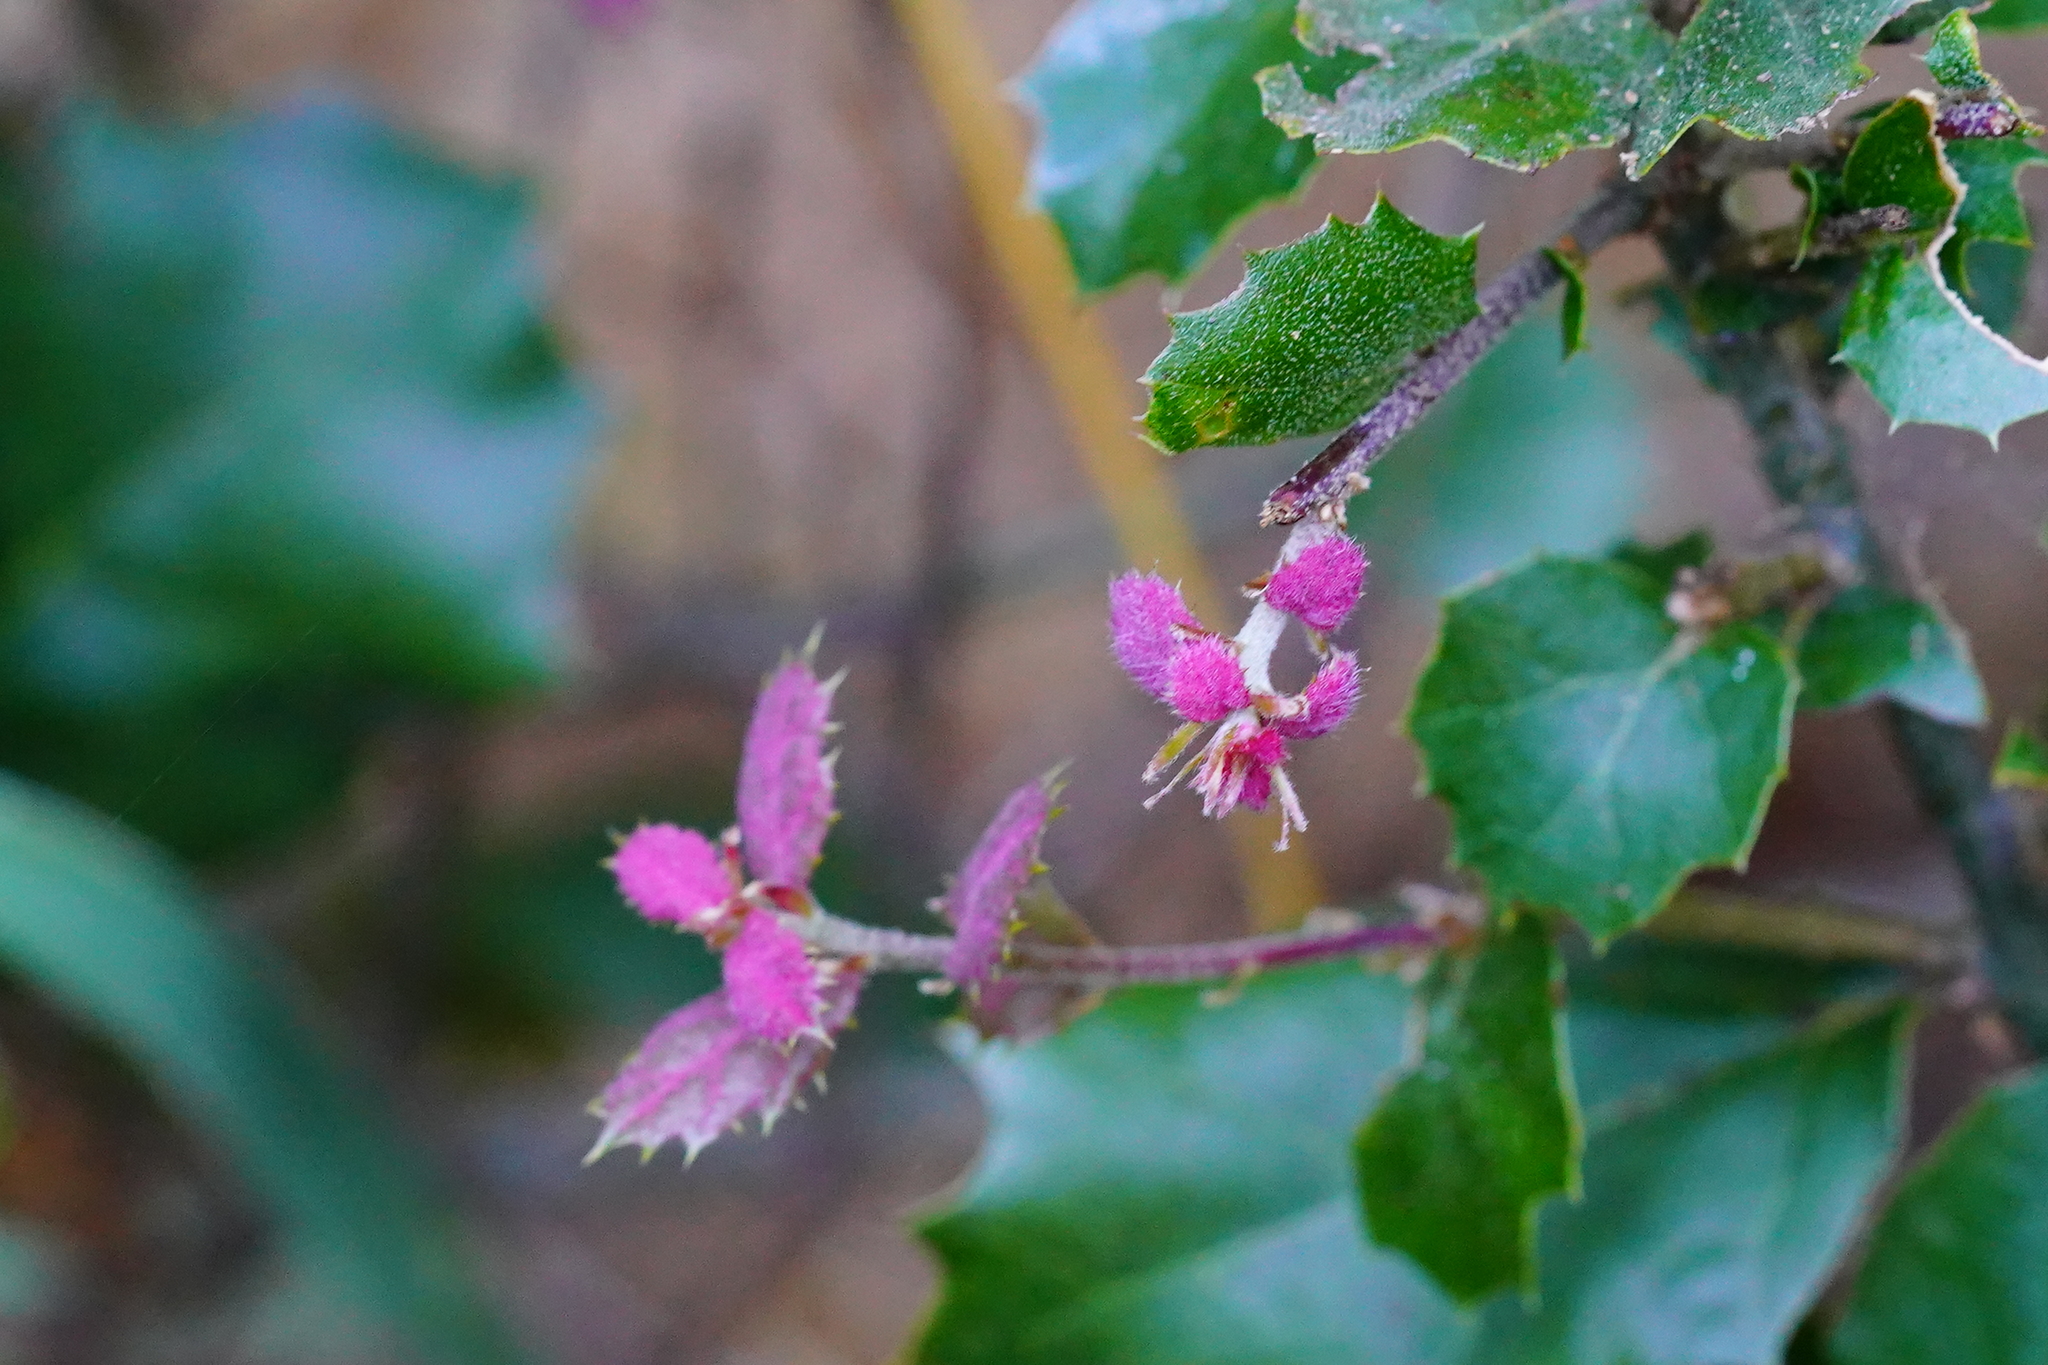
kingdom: Plantae
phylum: Tracheophyta
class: Magnoliopsida
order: Fagales
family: Fagaceae
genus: Quercus
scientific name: Quercus agrifolia
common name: California live oak
